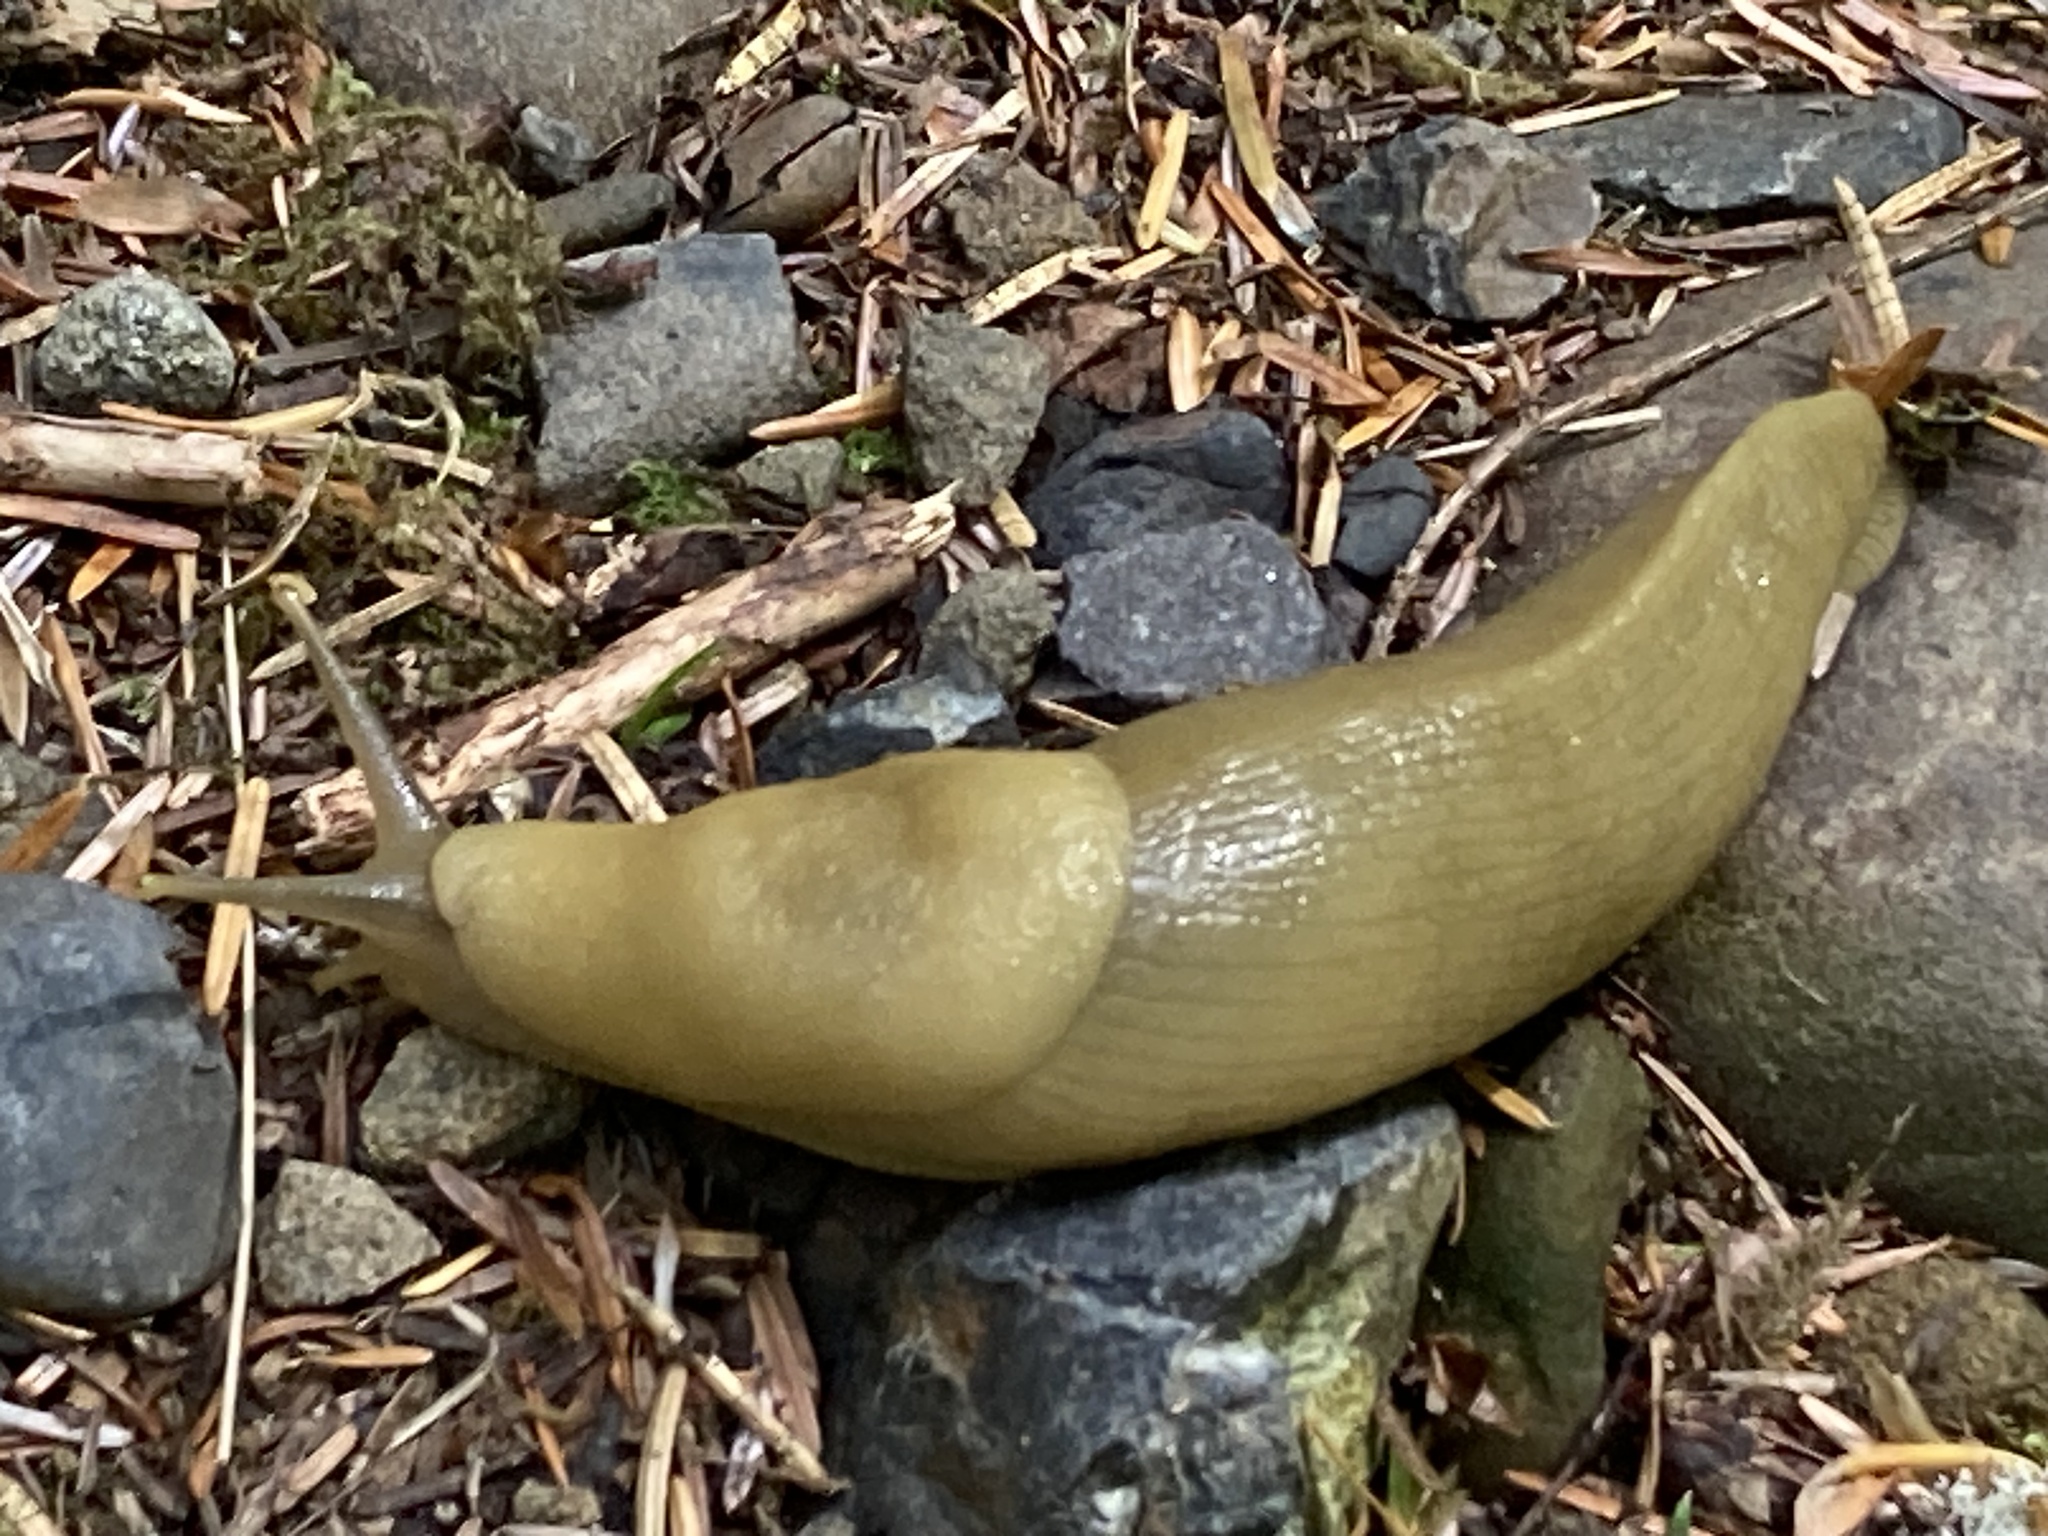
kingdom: Animalia
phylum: Mollusca
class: Gastropoda
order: Stylommatophora
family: Ariolimacidae
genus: Ariolimax
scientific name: Ariolimax columbianus
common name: Pacific banana slug
